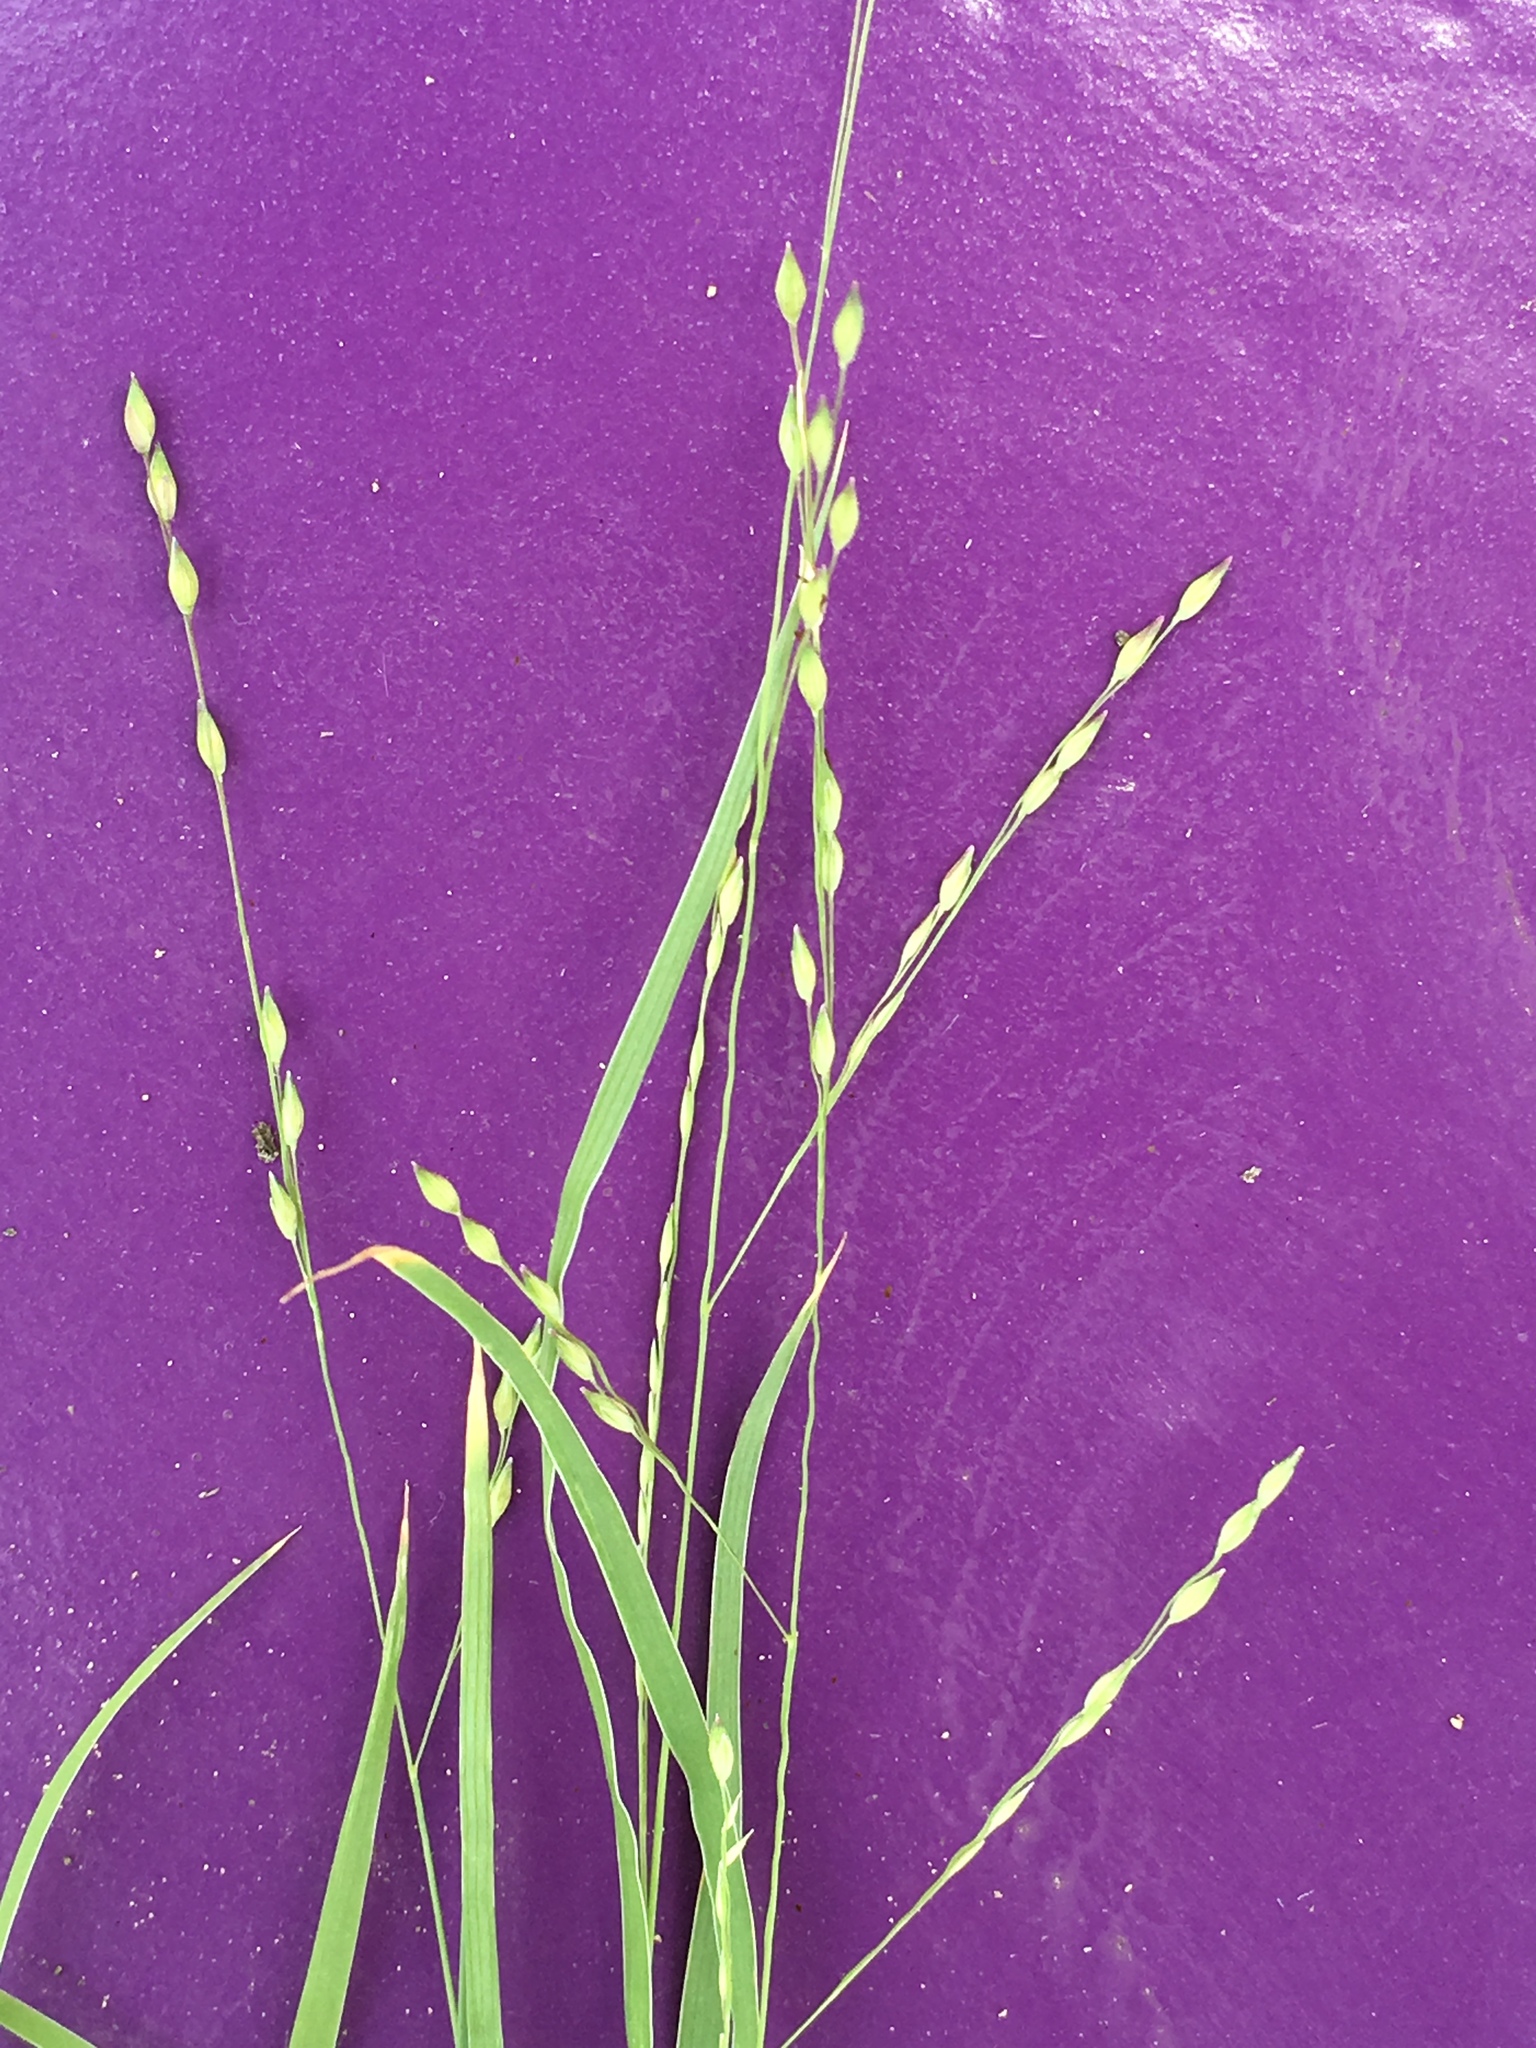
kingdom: Plantae
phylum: Tracheophyta
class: Liliopsida
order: Poales
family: Poaceae
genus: Panicum
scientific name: Panicum hallii
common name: Hall's witchgrass
